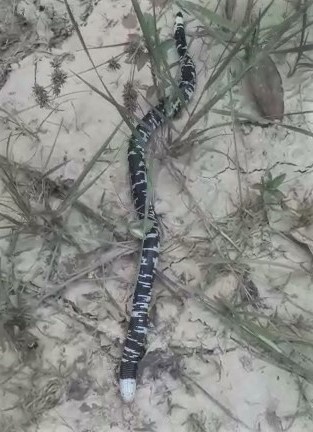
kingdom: Animalia
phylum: Chordata
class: Squamata
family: Amphisbaenidae
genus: Amphisbaena
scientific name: Amphisbaena fuliginosa
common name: Speckled worm lizard
